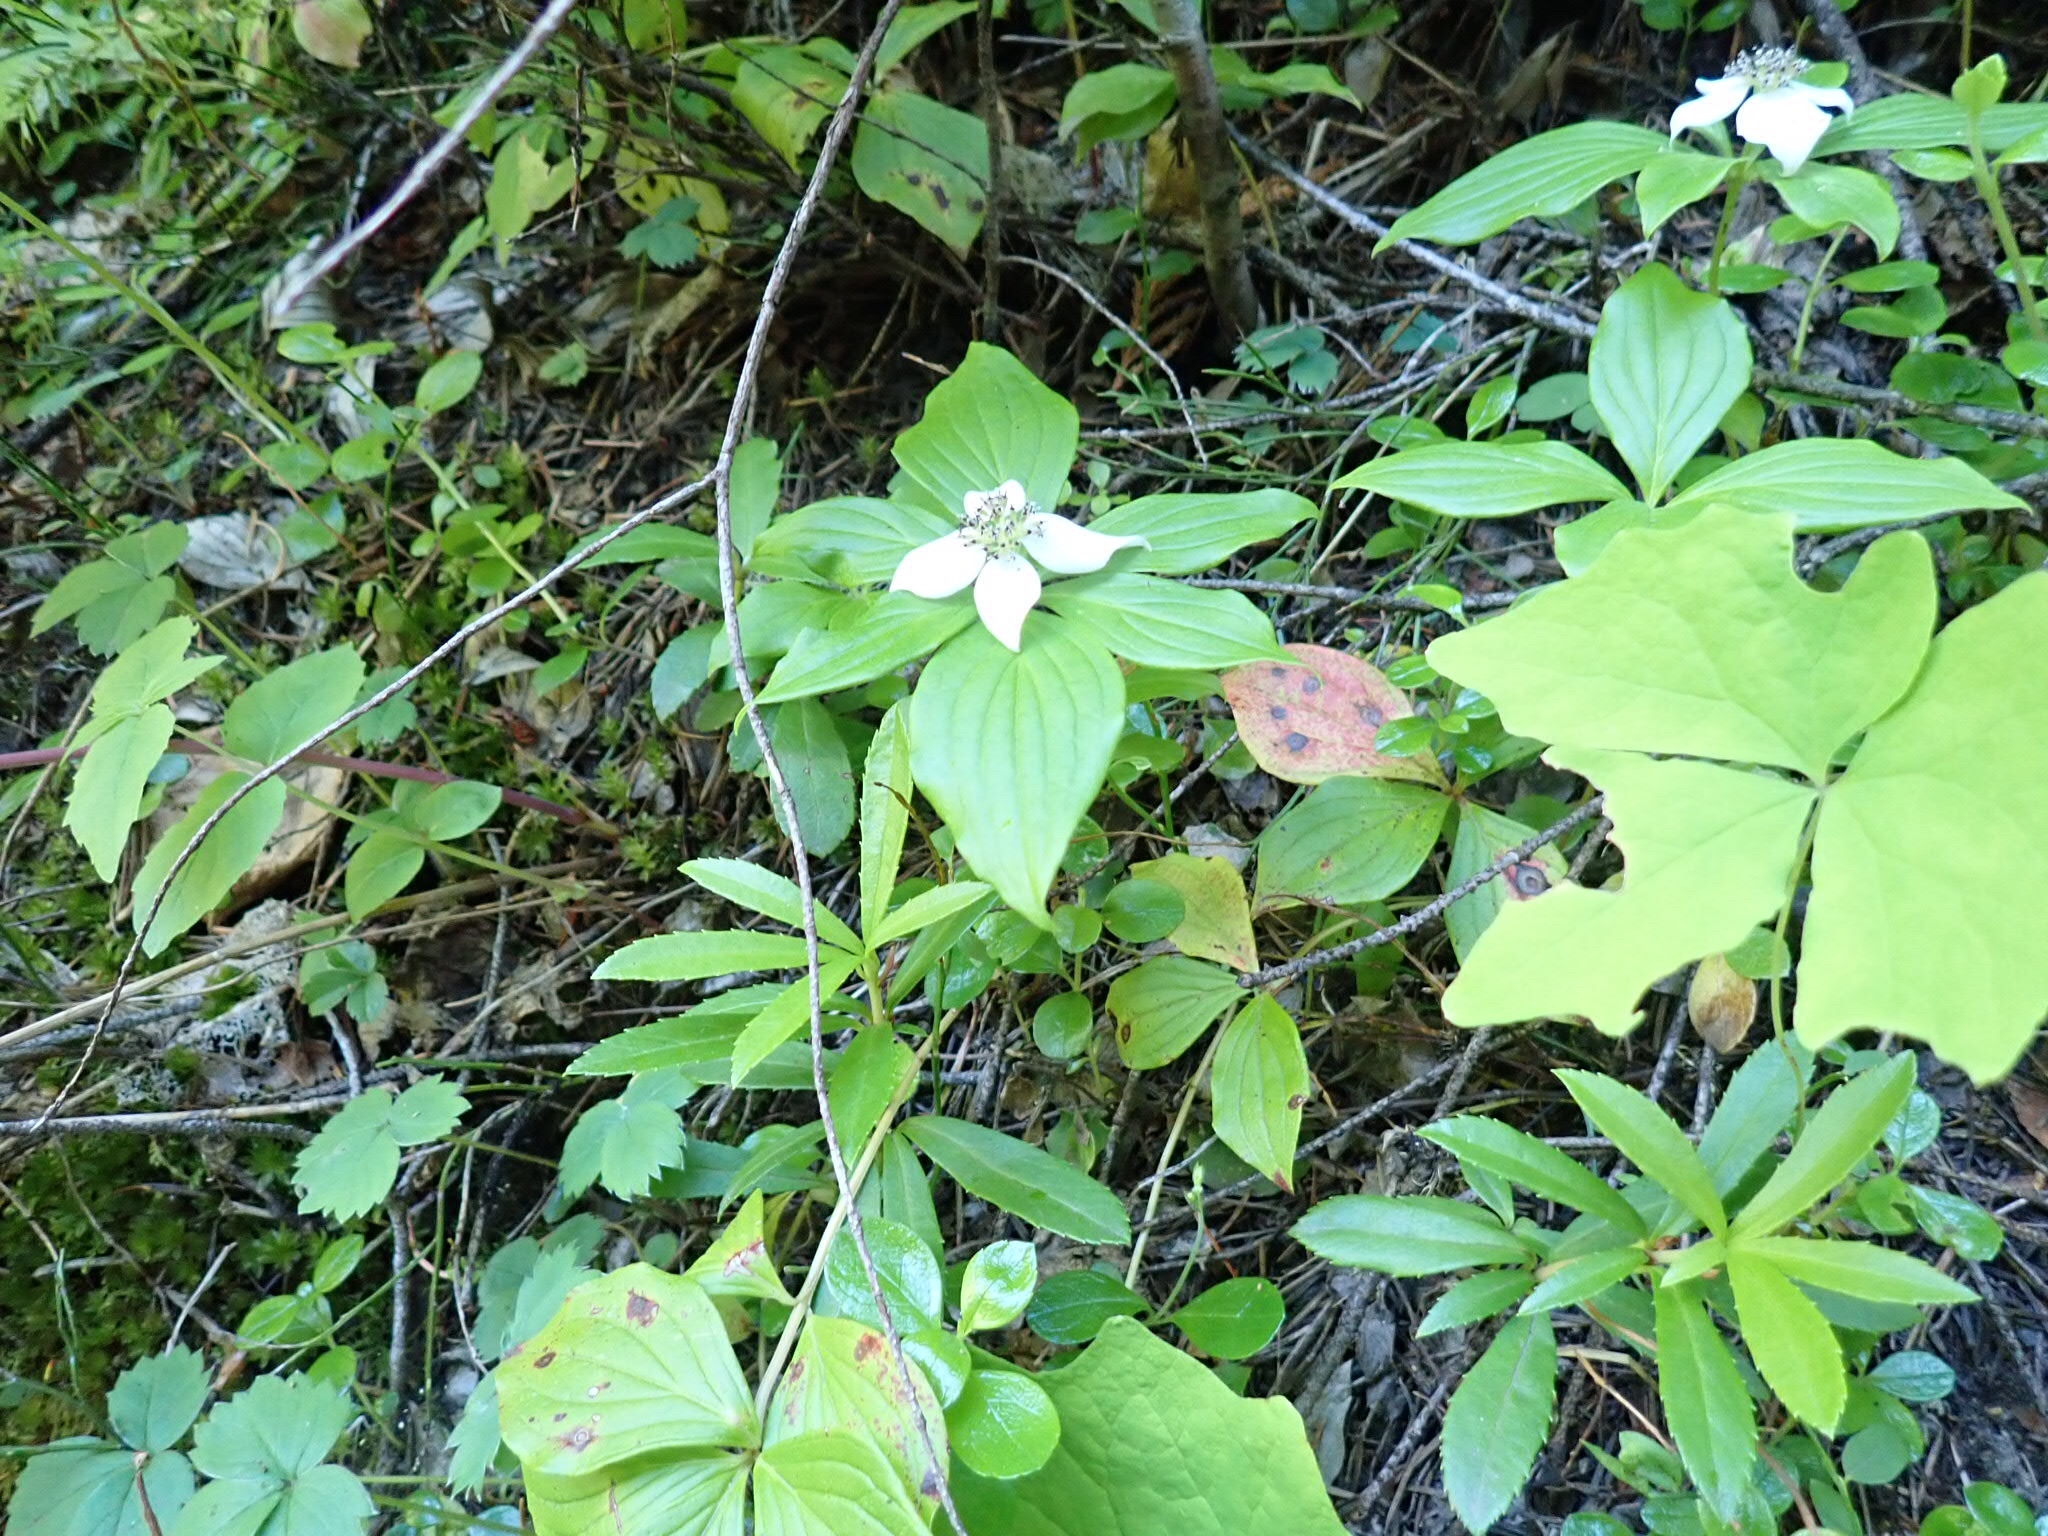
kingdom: Plantae
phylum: Tracheophyta
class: Magnoliopsida
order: Cornales
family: Cornaceae
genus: Cornus
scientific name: Cornus unalaschkensis
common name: Alaska bunchberry
